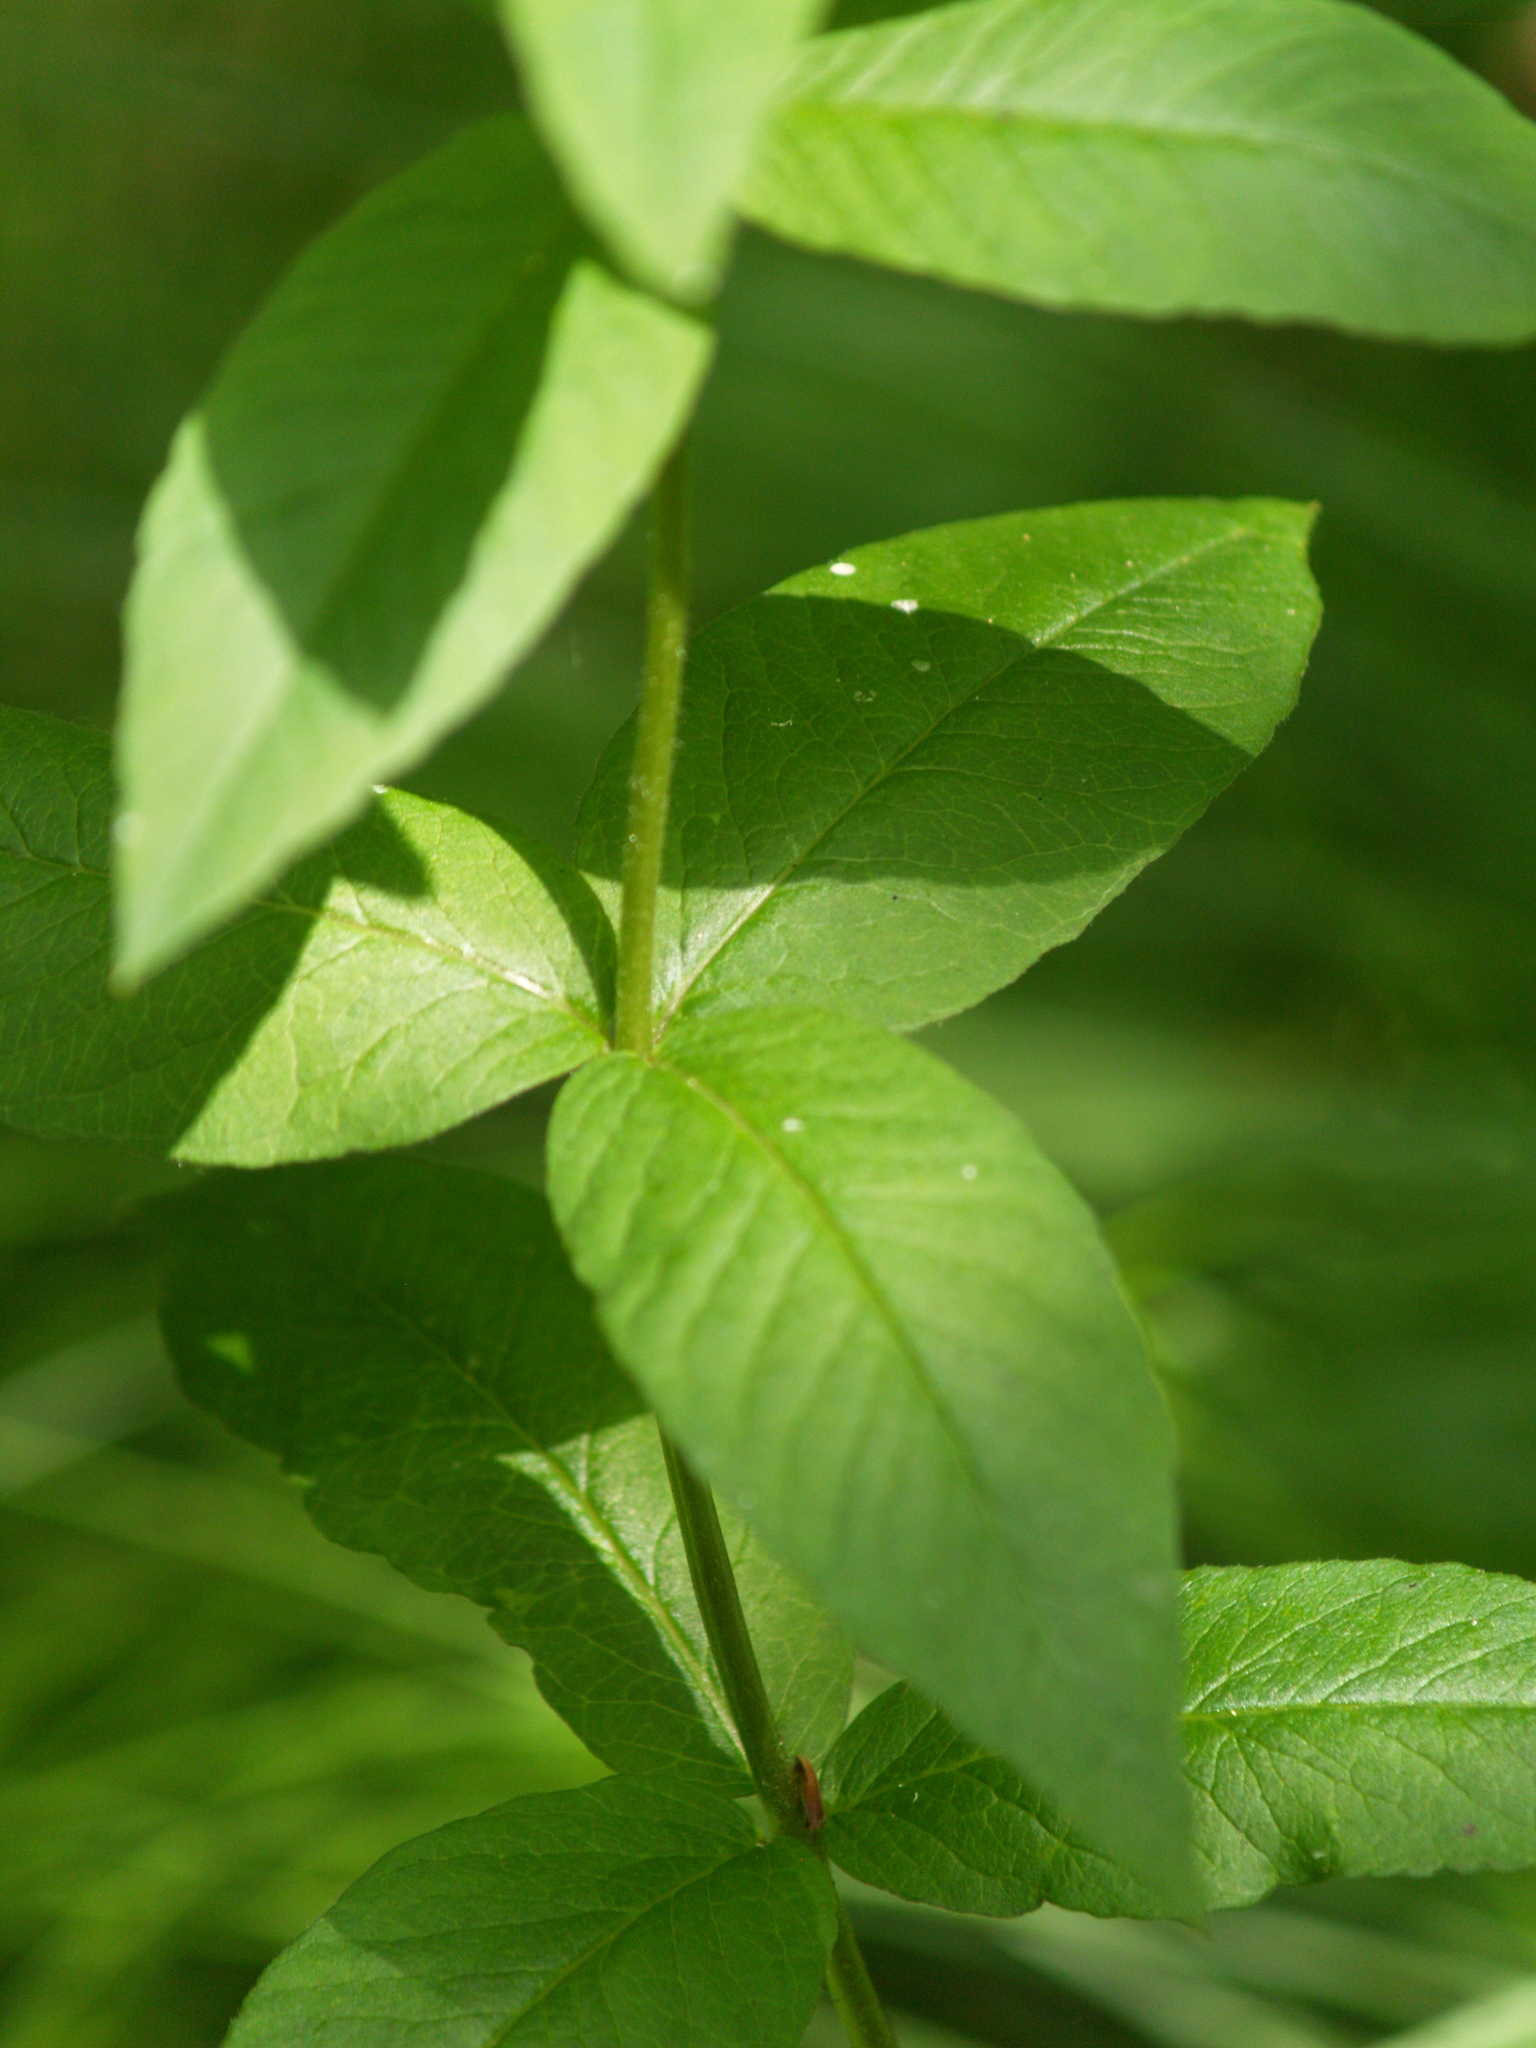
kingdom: Plantae
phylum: Tracheophyta
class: Magnoliopsida
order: Ericales
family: Primulaceae
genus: Lysimachia
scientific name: Lysimachia vulgaris
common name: Yellow loosestrife
